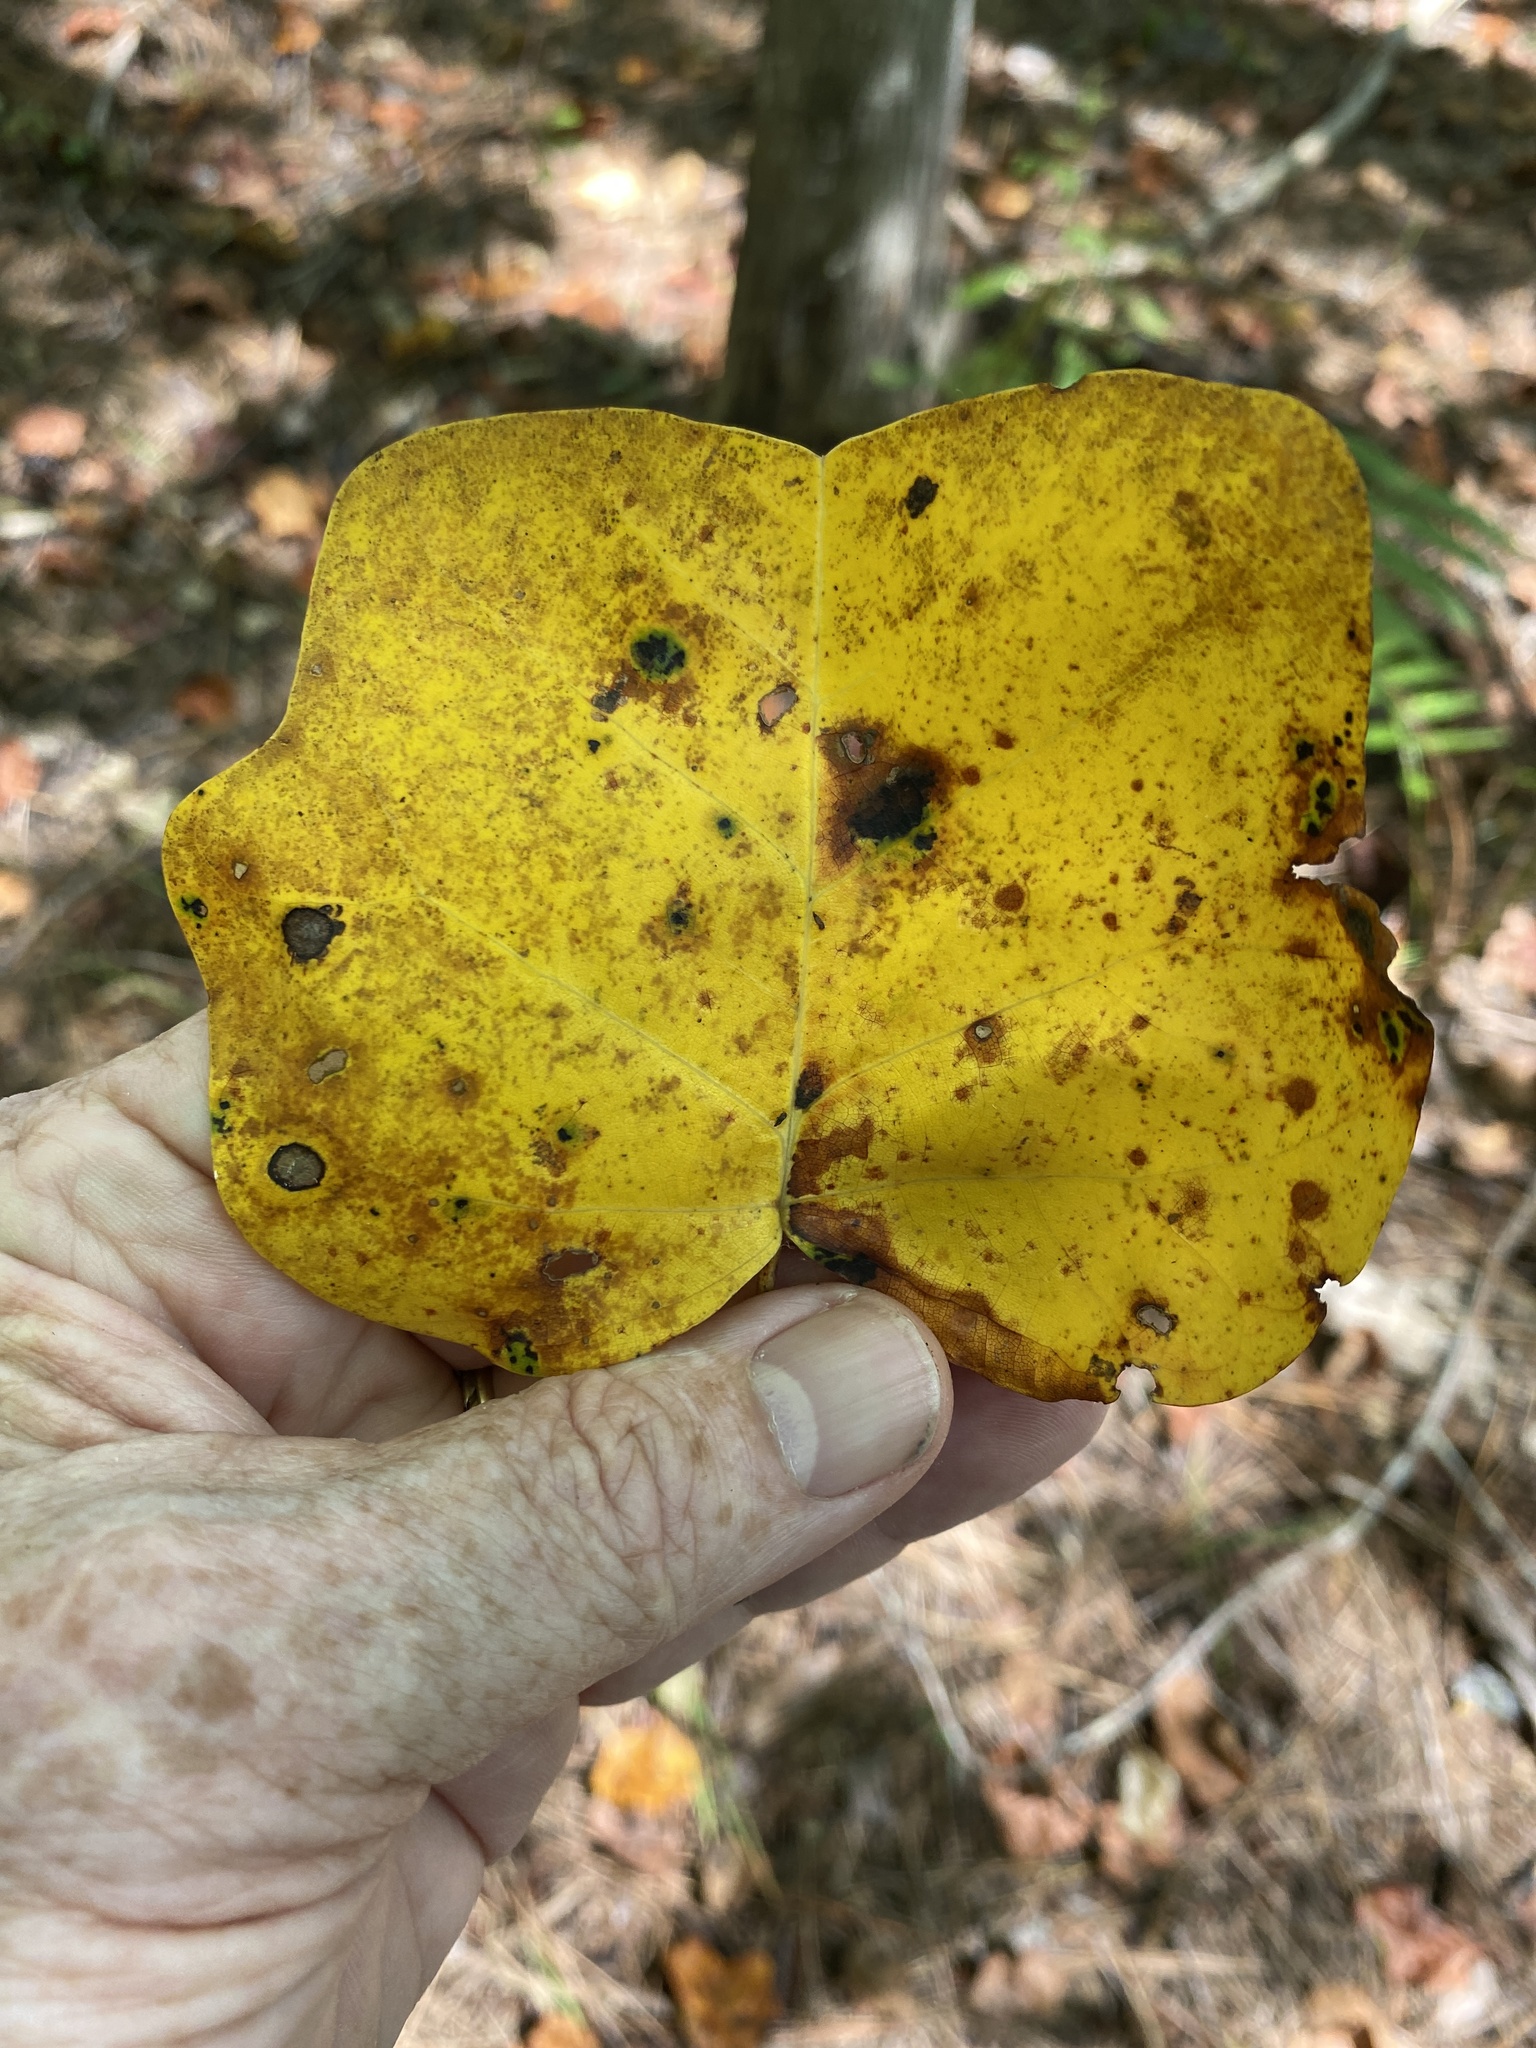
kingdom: Plantae
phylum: Tracheophyta
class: Magnoliopsida
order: Magnoliales
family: Magnoliaceae
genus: Liriodendron
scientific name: Liriodendron tulipifera
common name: Tulip tree
